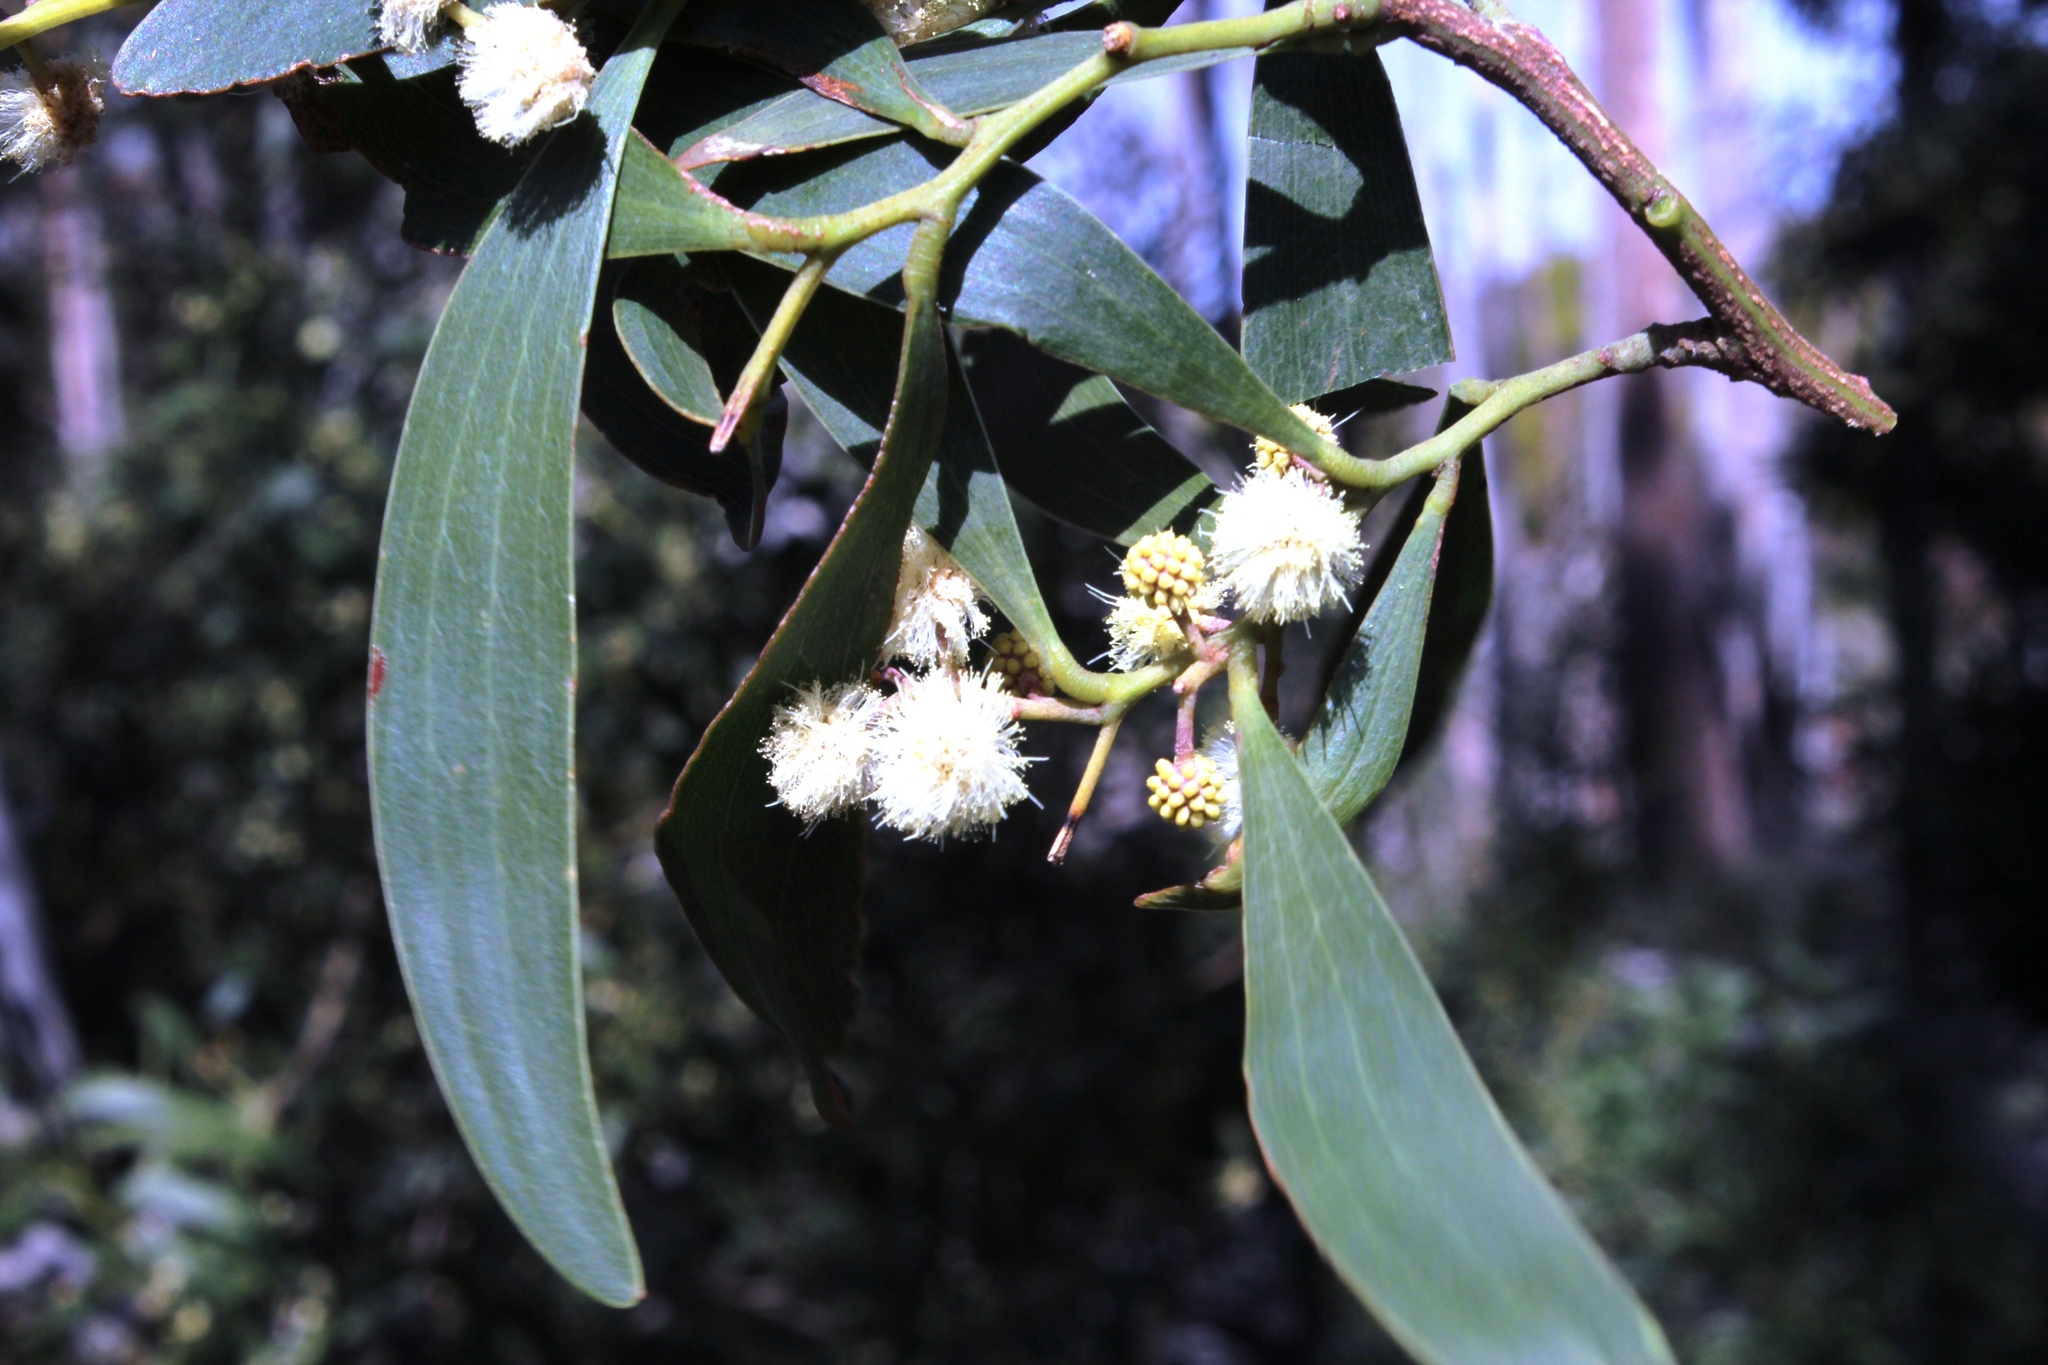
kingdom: Plantae
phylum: Tracheophyta
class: Magnoliopsida
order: Fabales
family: Fabaceae
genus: Acacia
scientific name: Acacia melanoxylon
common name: Blackwood
